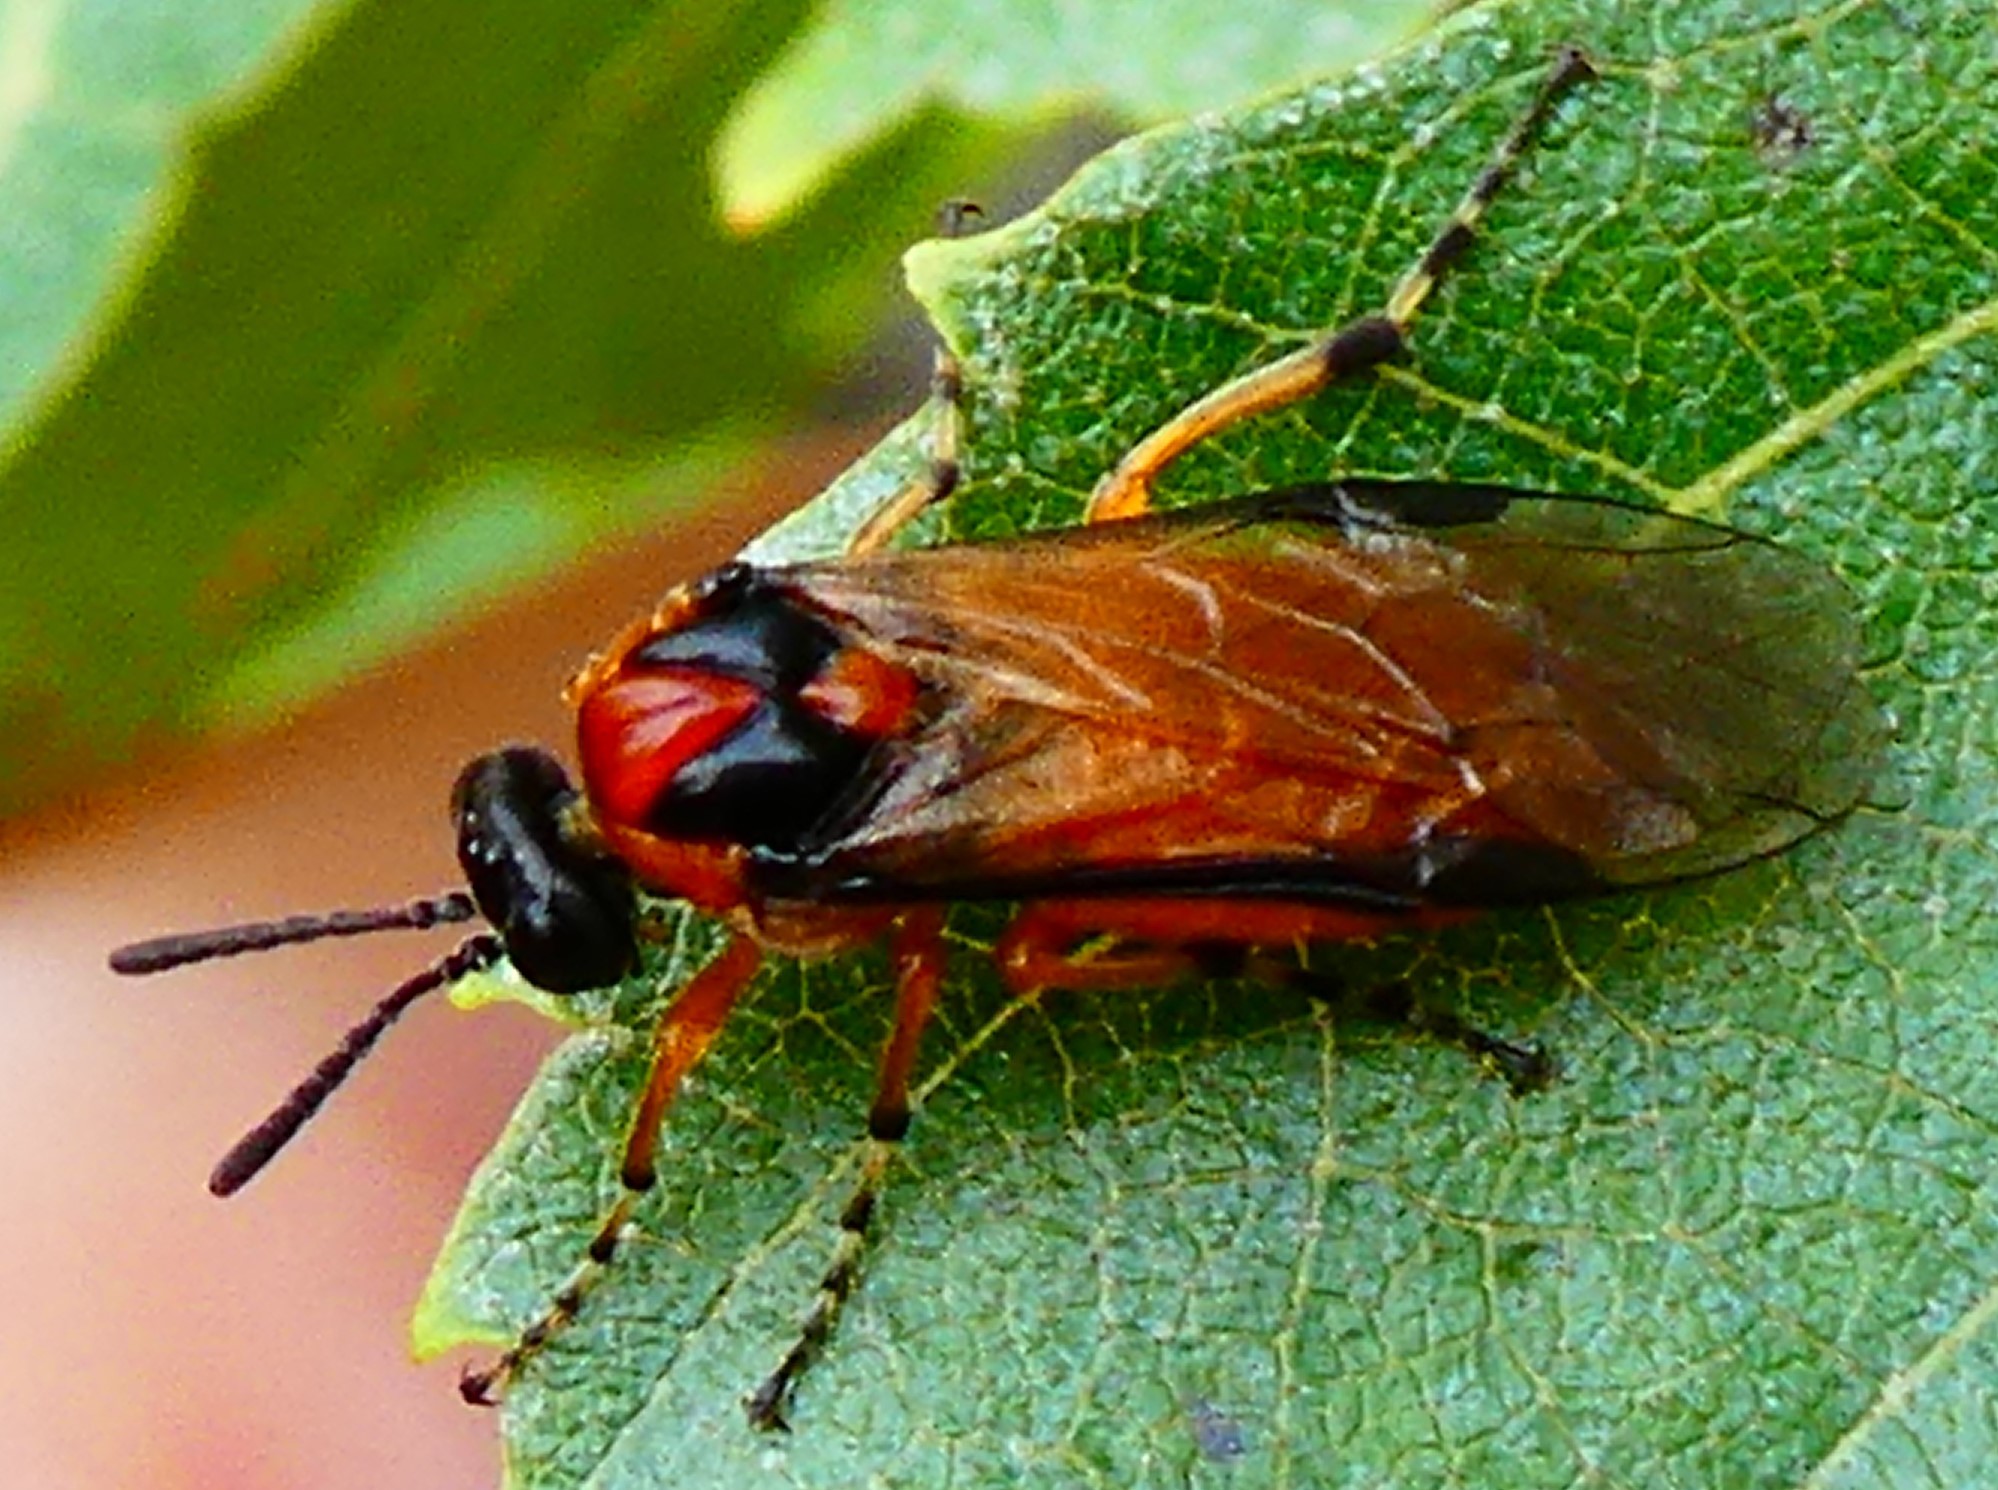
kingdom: Animalia
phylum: Arthropoda
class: Insecta
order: Hymenoptera
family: Tenthredinidae
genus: Athalia
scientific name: Athalia rosae
